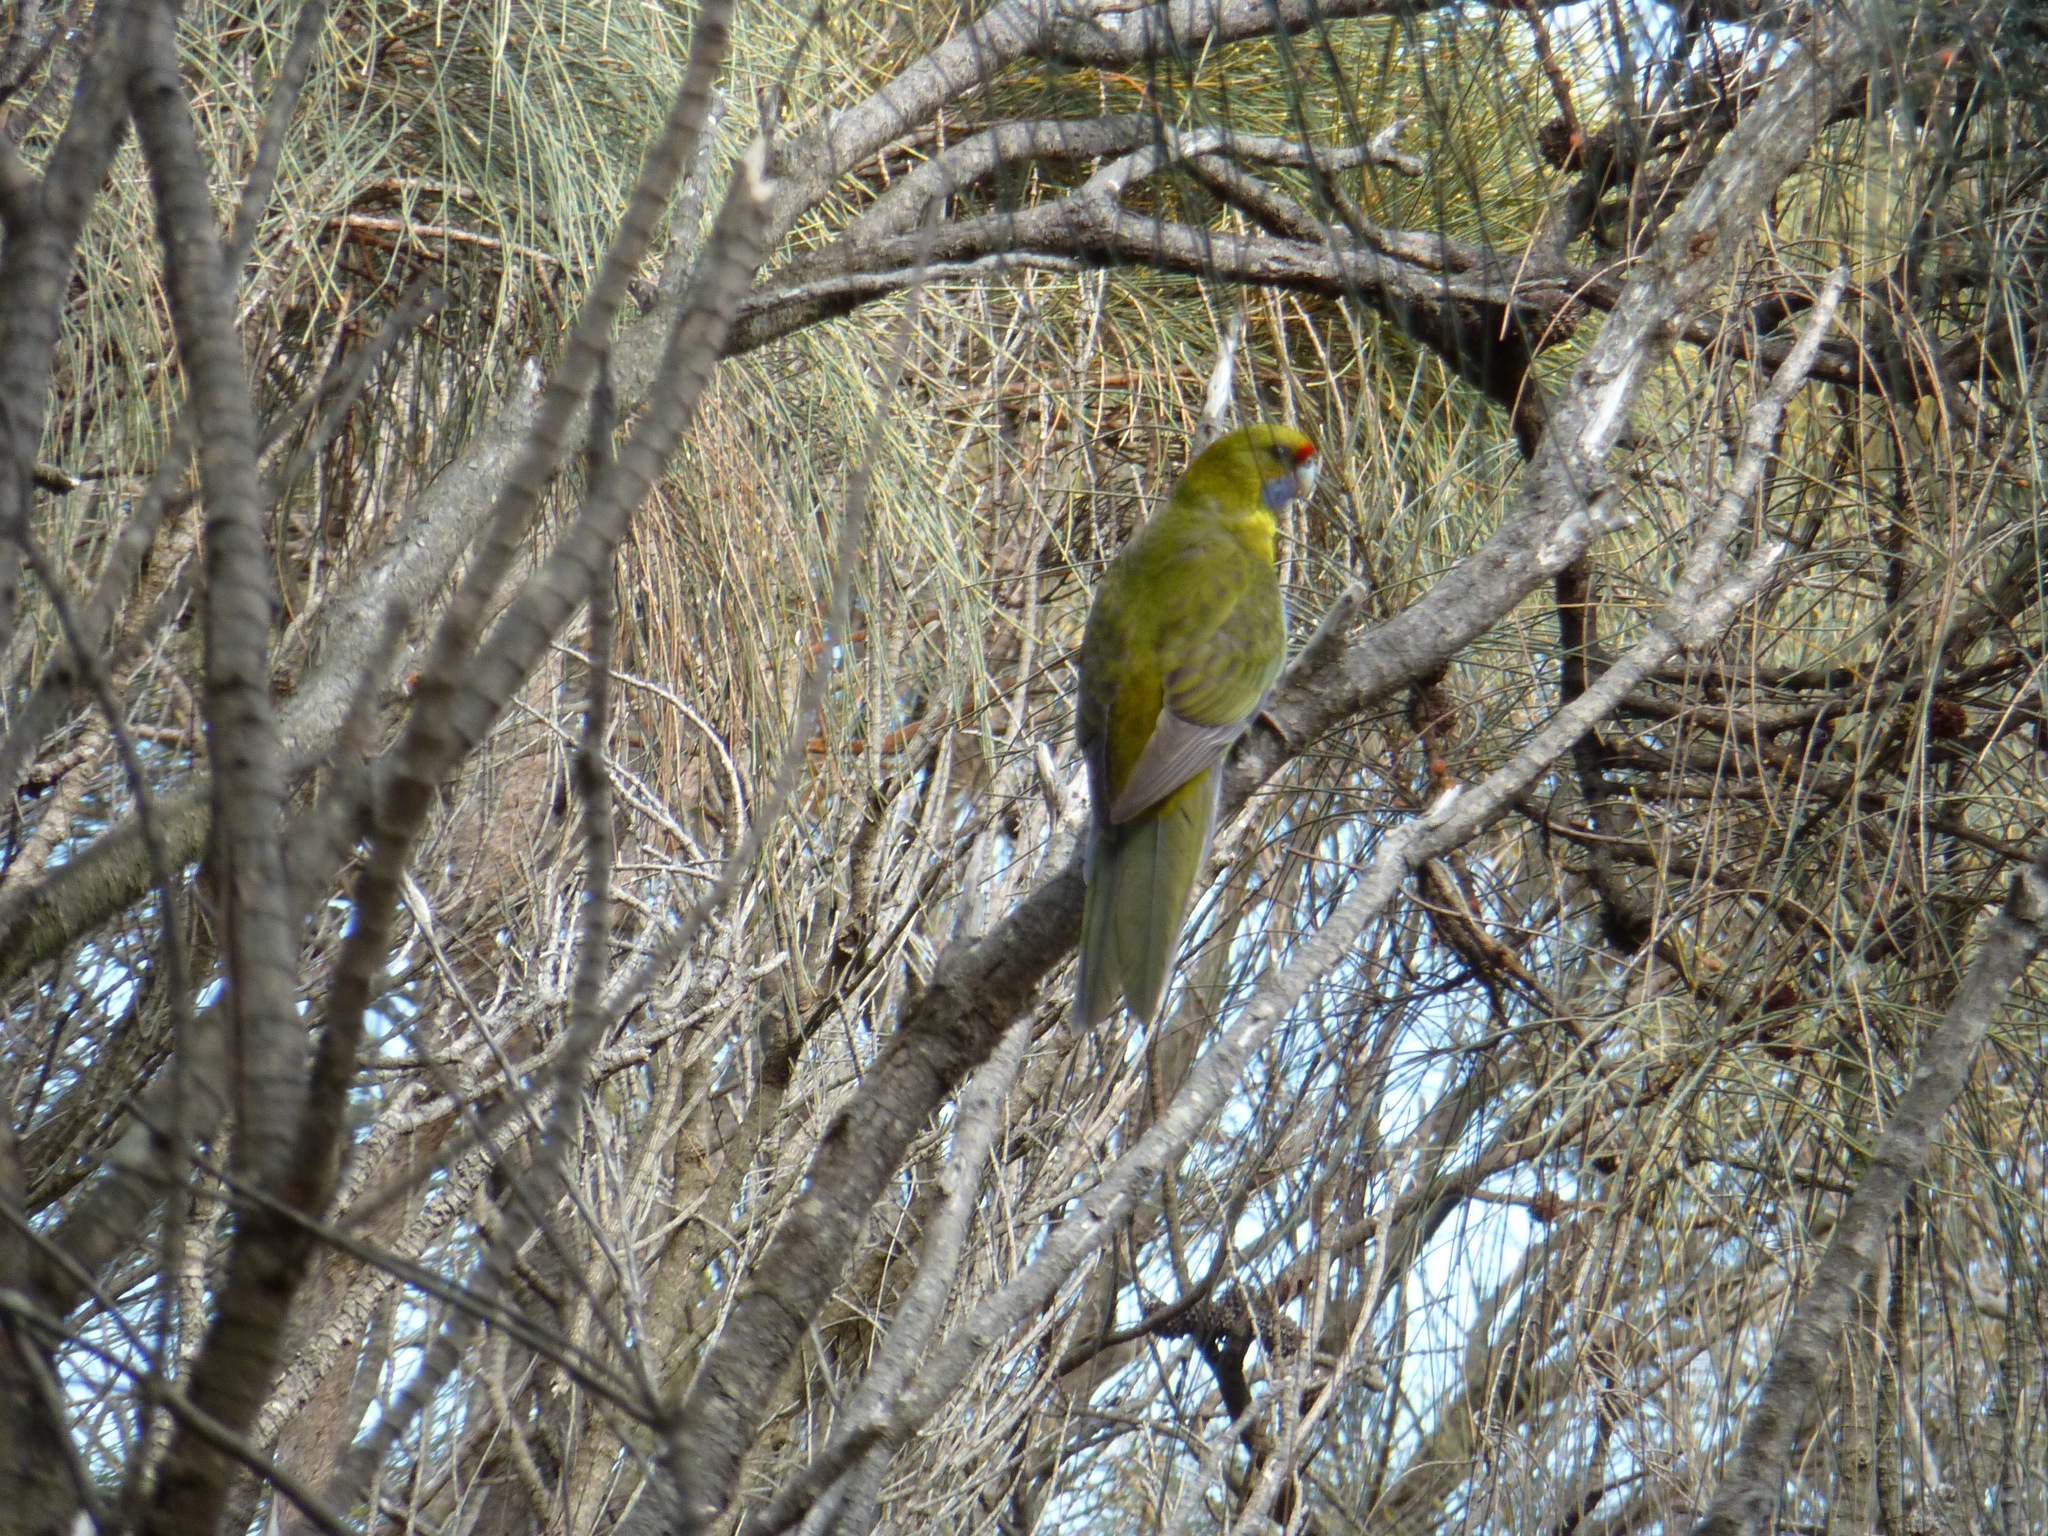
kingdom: Animalia
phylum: Chordata
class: Aves
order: Psittaciformes
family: Psittacidae
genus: Platycercus
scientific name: Platycercus caledonicus
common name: Green rosella
